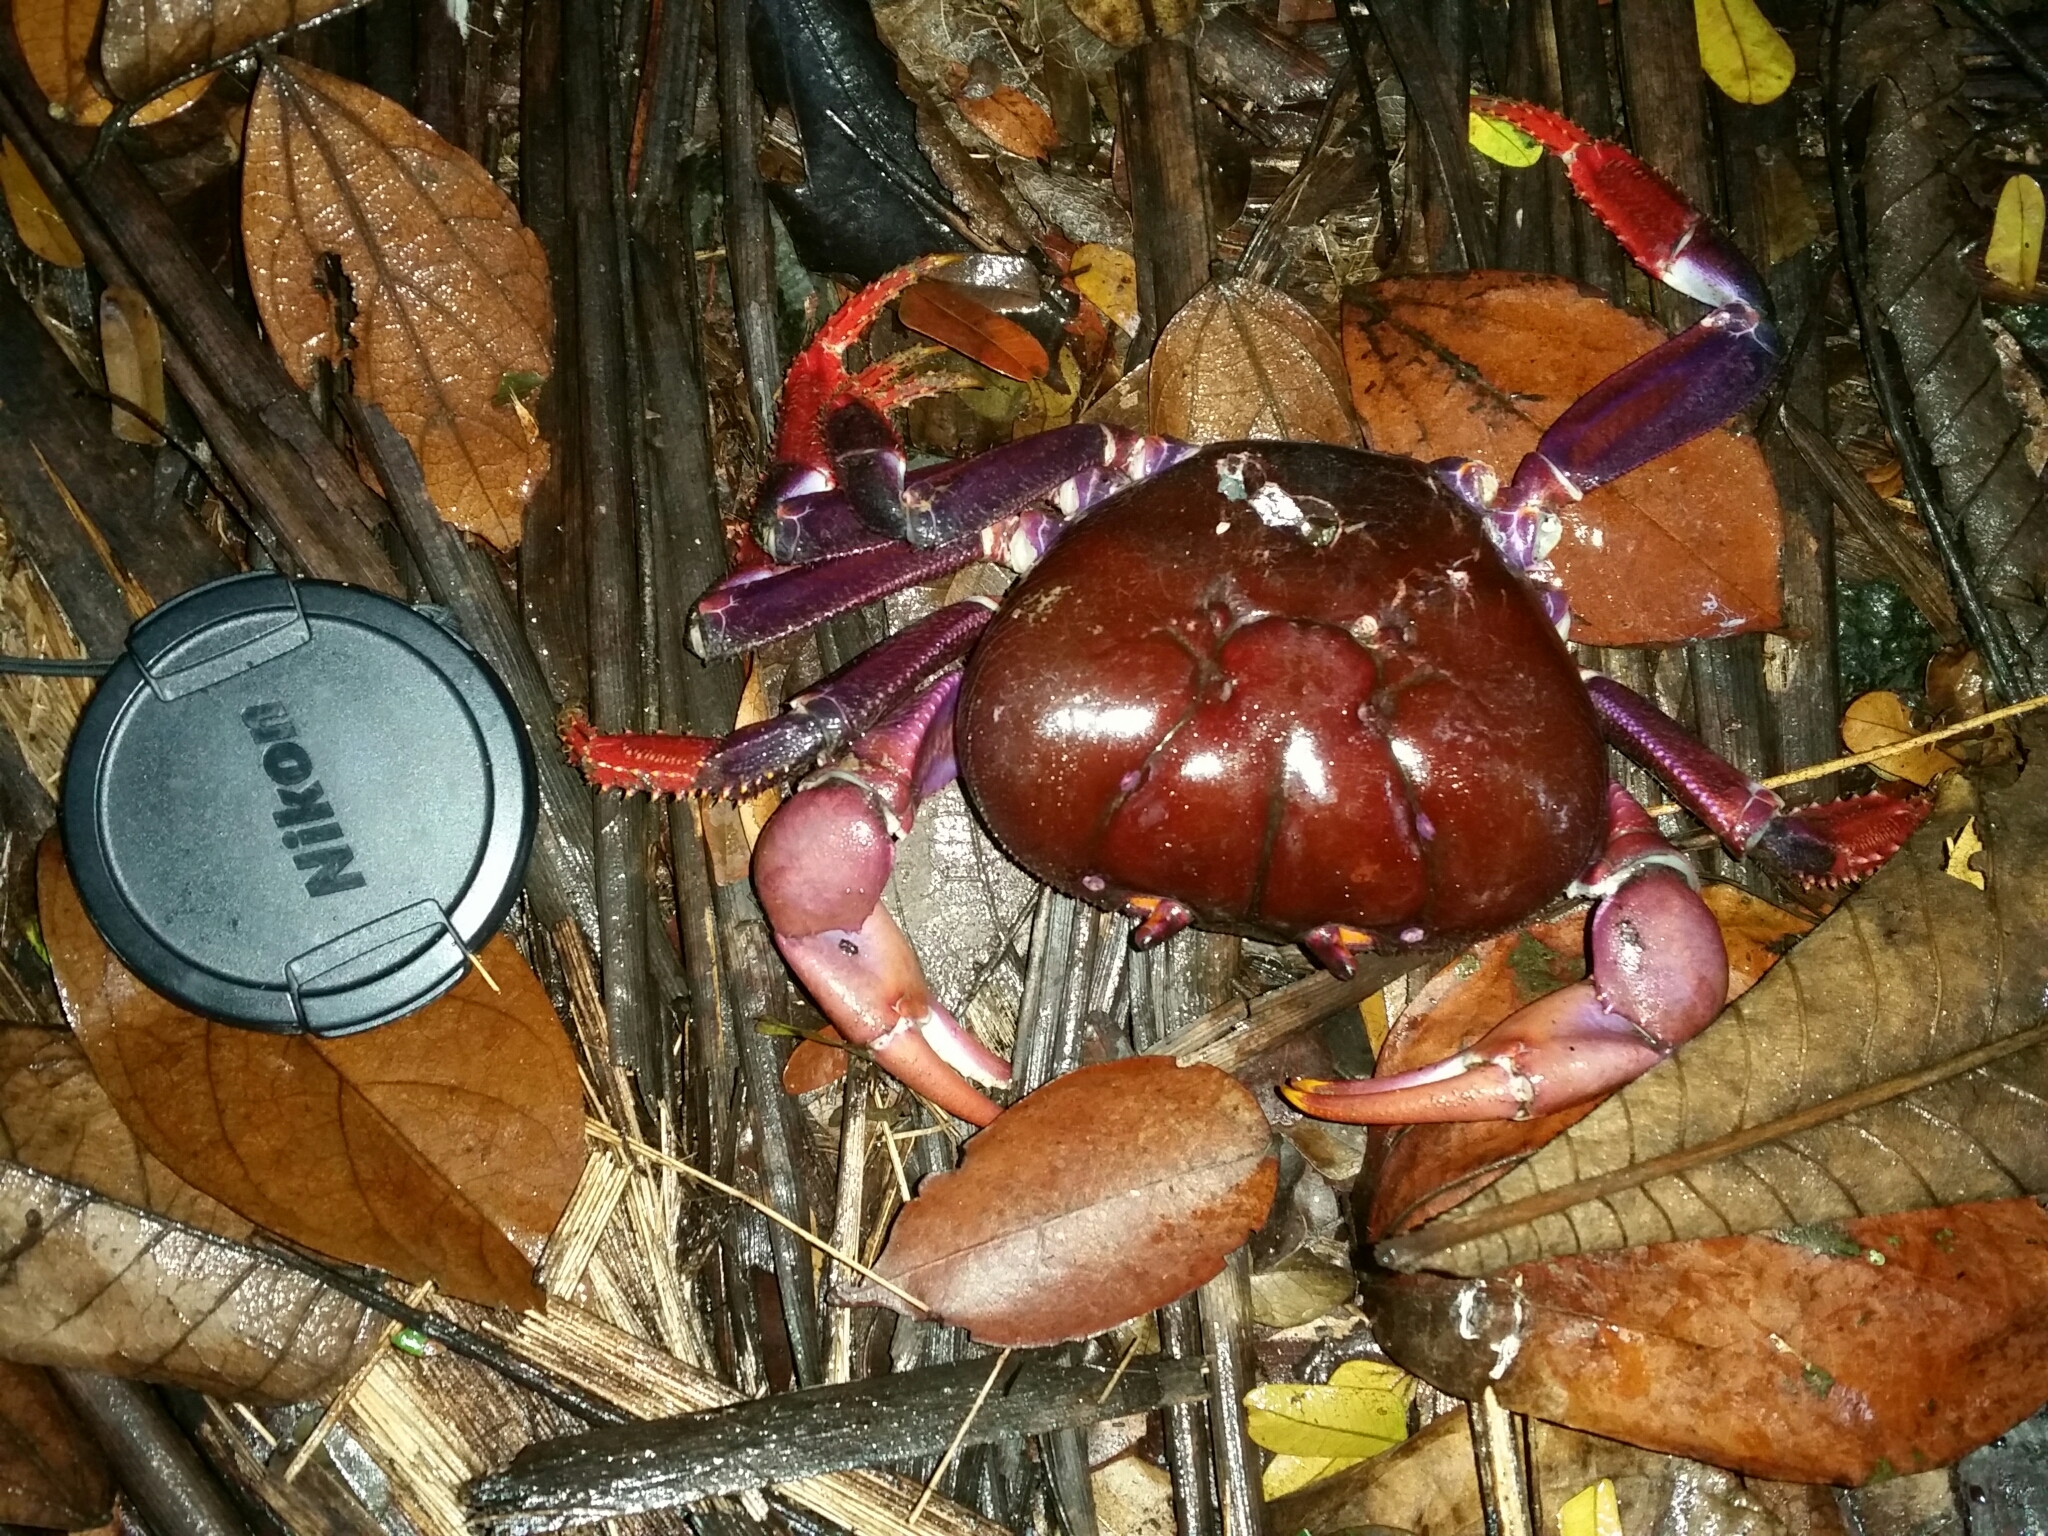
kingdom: Animalia
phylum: Arthropoda
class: Malacostraca
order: Decapoda
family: Gecarcinidae
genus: Johngarthia
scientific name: Johngarthia weileri
